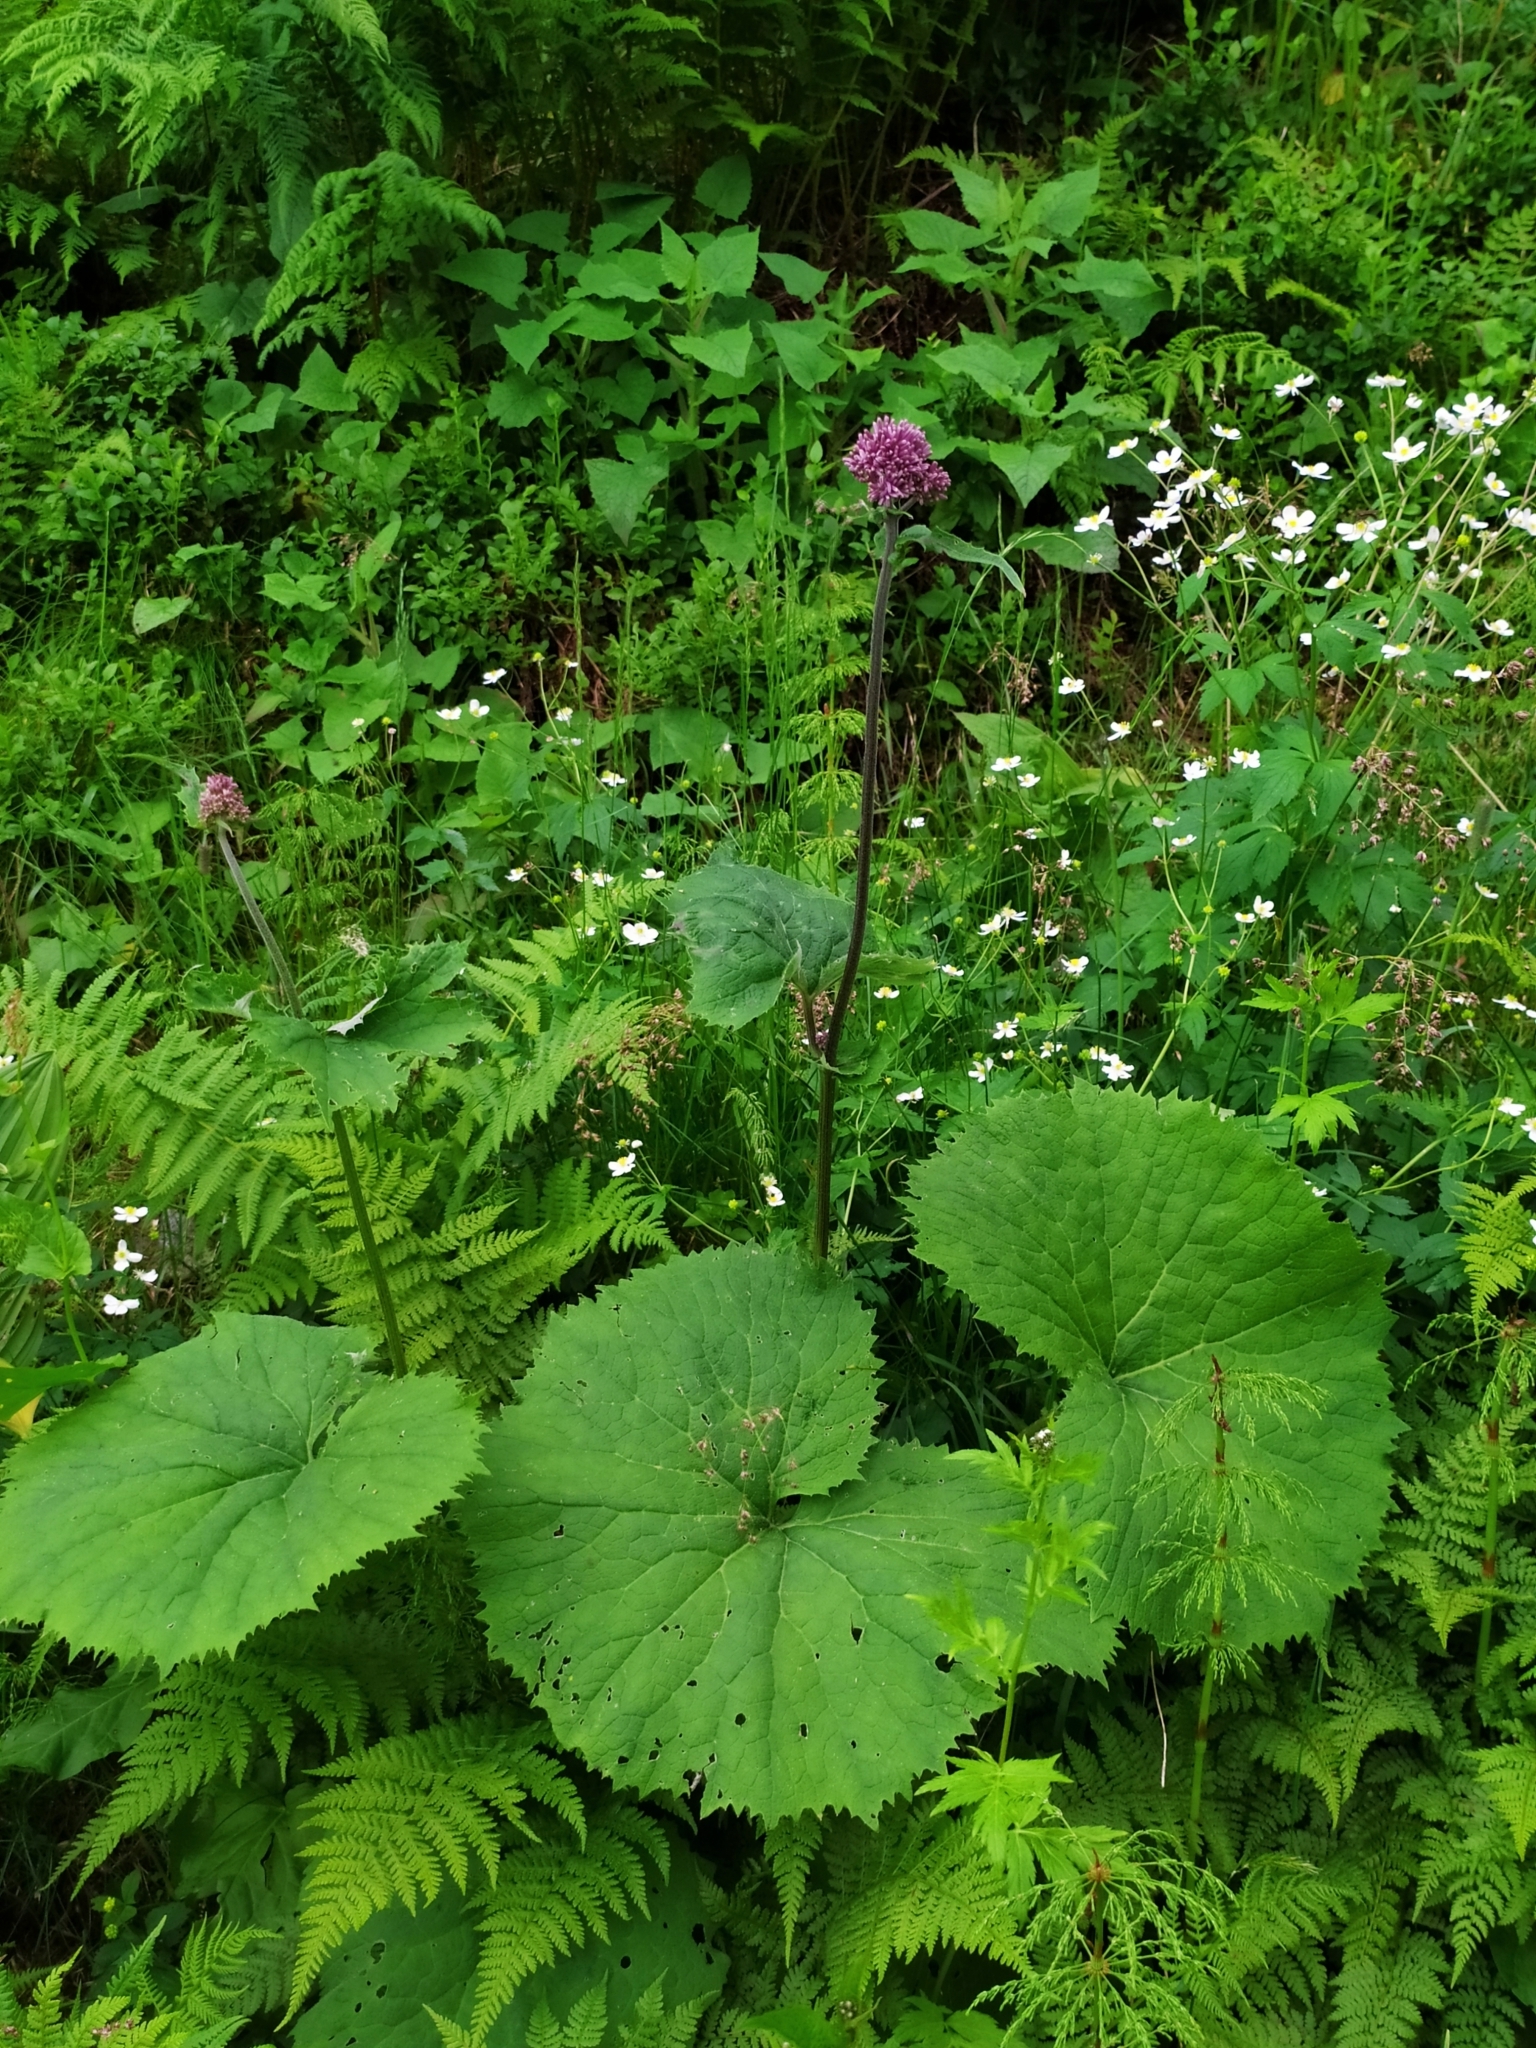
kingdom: Plantae
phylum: Tracheophyta
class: Magnoliopsida
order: Asterales
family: Asteraceae
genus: Adenostyles
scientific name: Adenostyles alliariae
